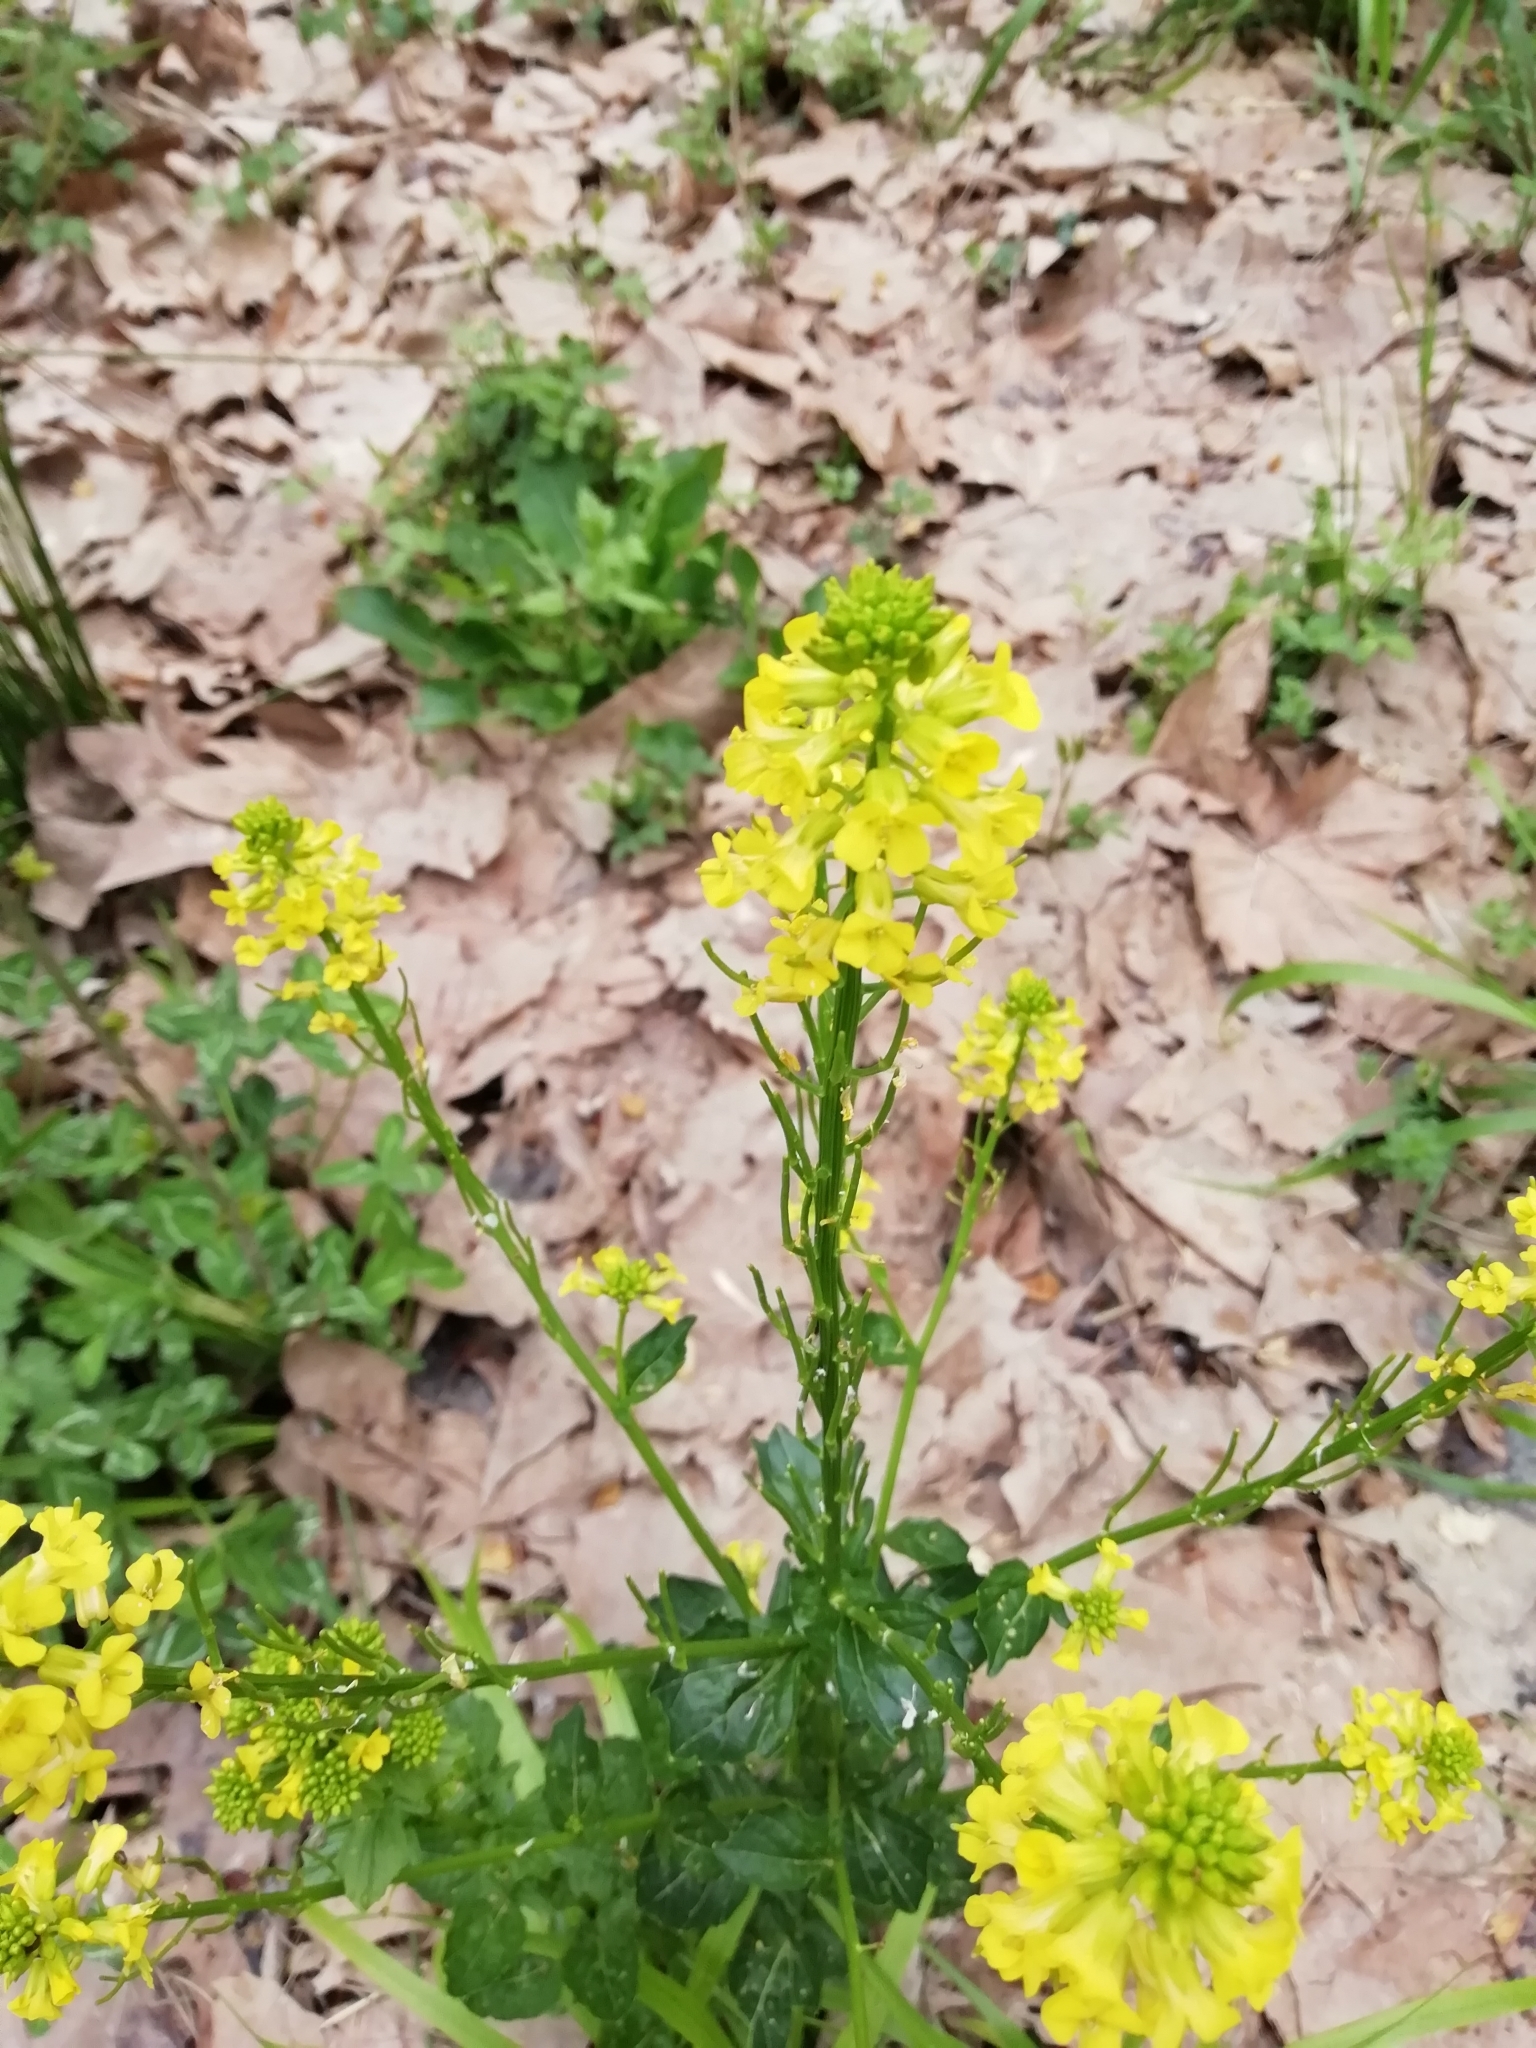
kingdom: Plantae
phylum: Tracheophyta
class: Magnoliopsida
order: Brassicales
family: Brassicaceae
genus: Barbarea
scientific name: Barbarea vulgaris
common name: Cressy-greens
